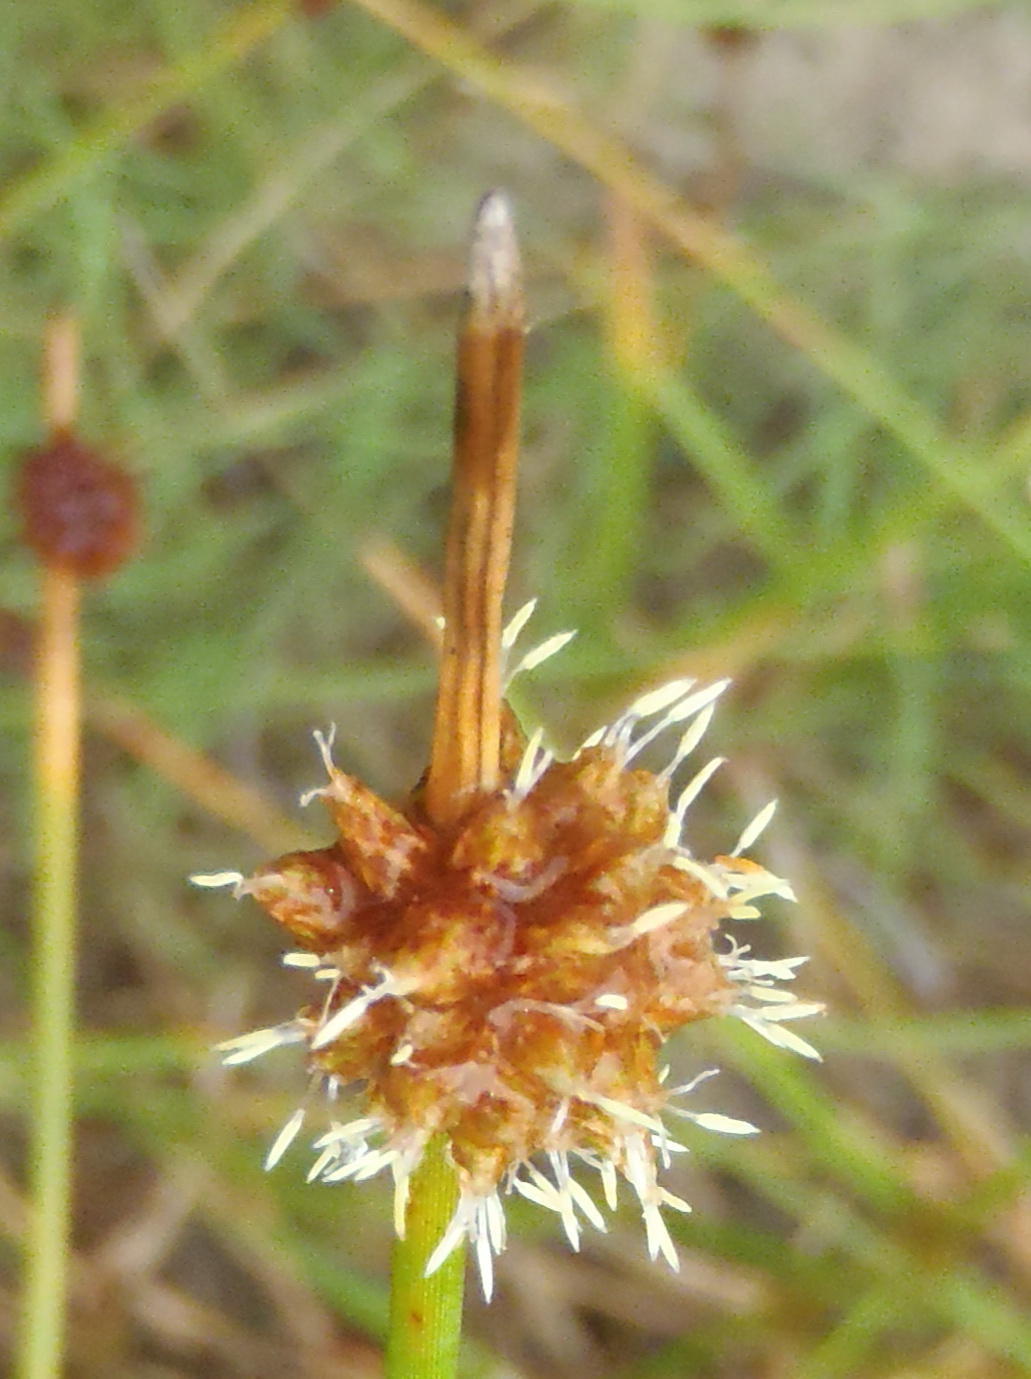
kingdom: Plantae
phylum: Tracheophyta
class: Liliopsida
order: Poales
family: Cyperaceae
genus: Ficinia
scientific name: Ficinia nodosa
